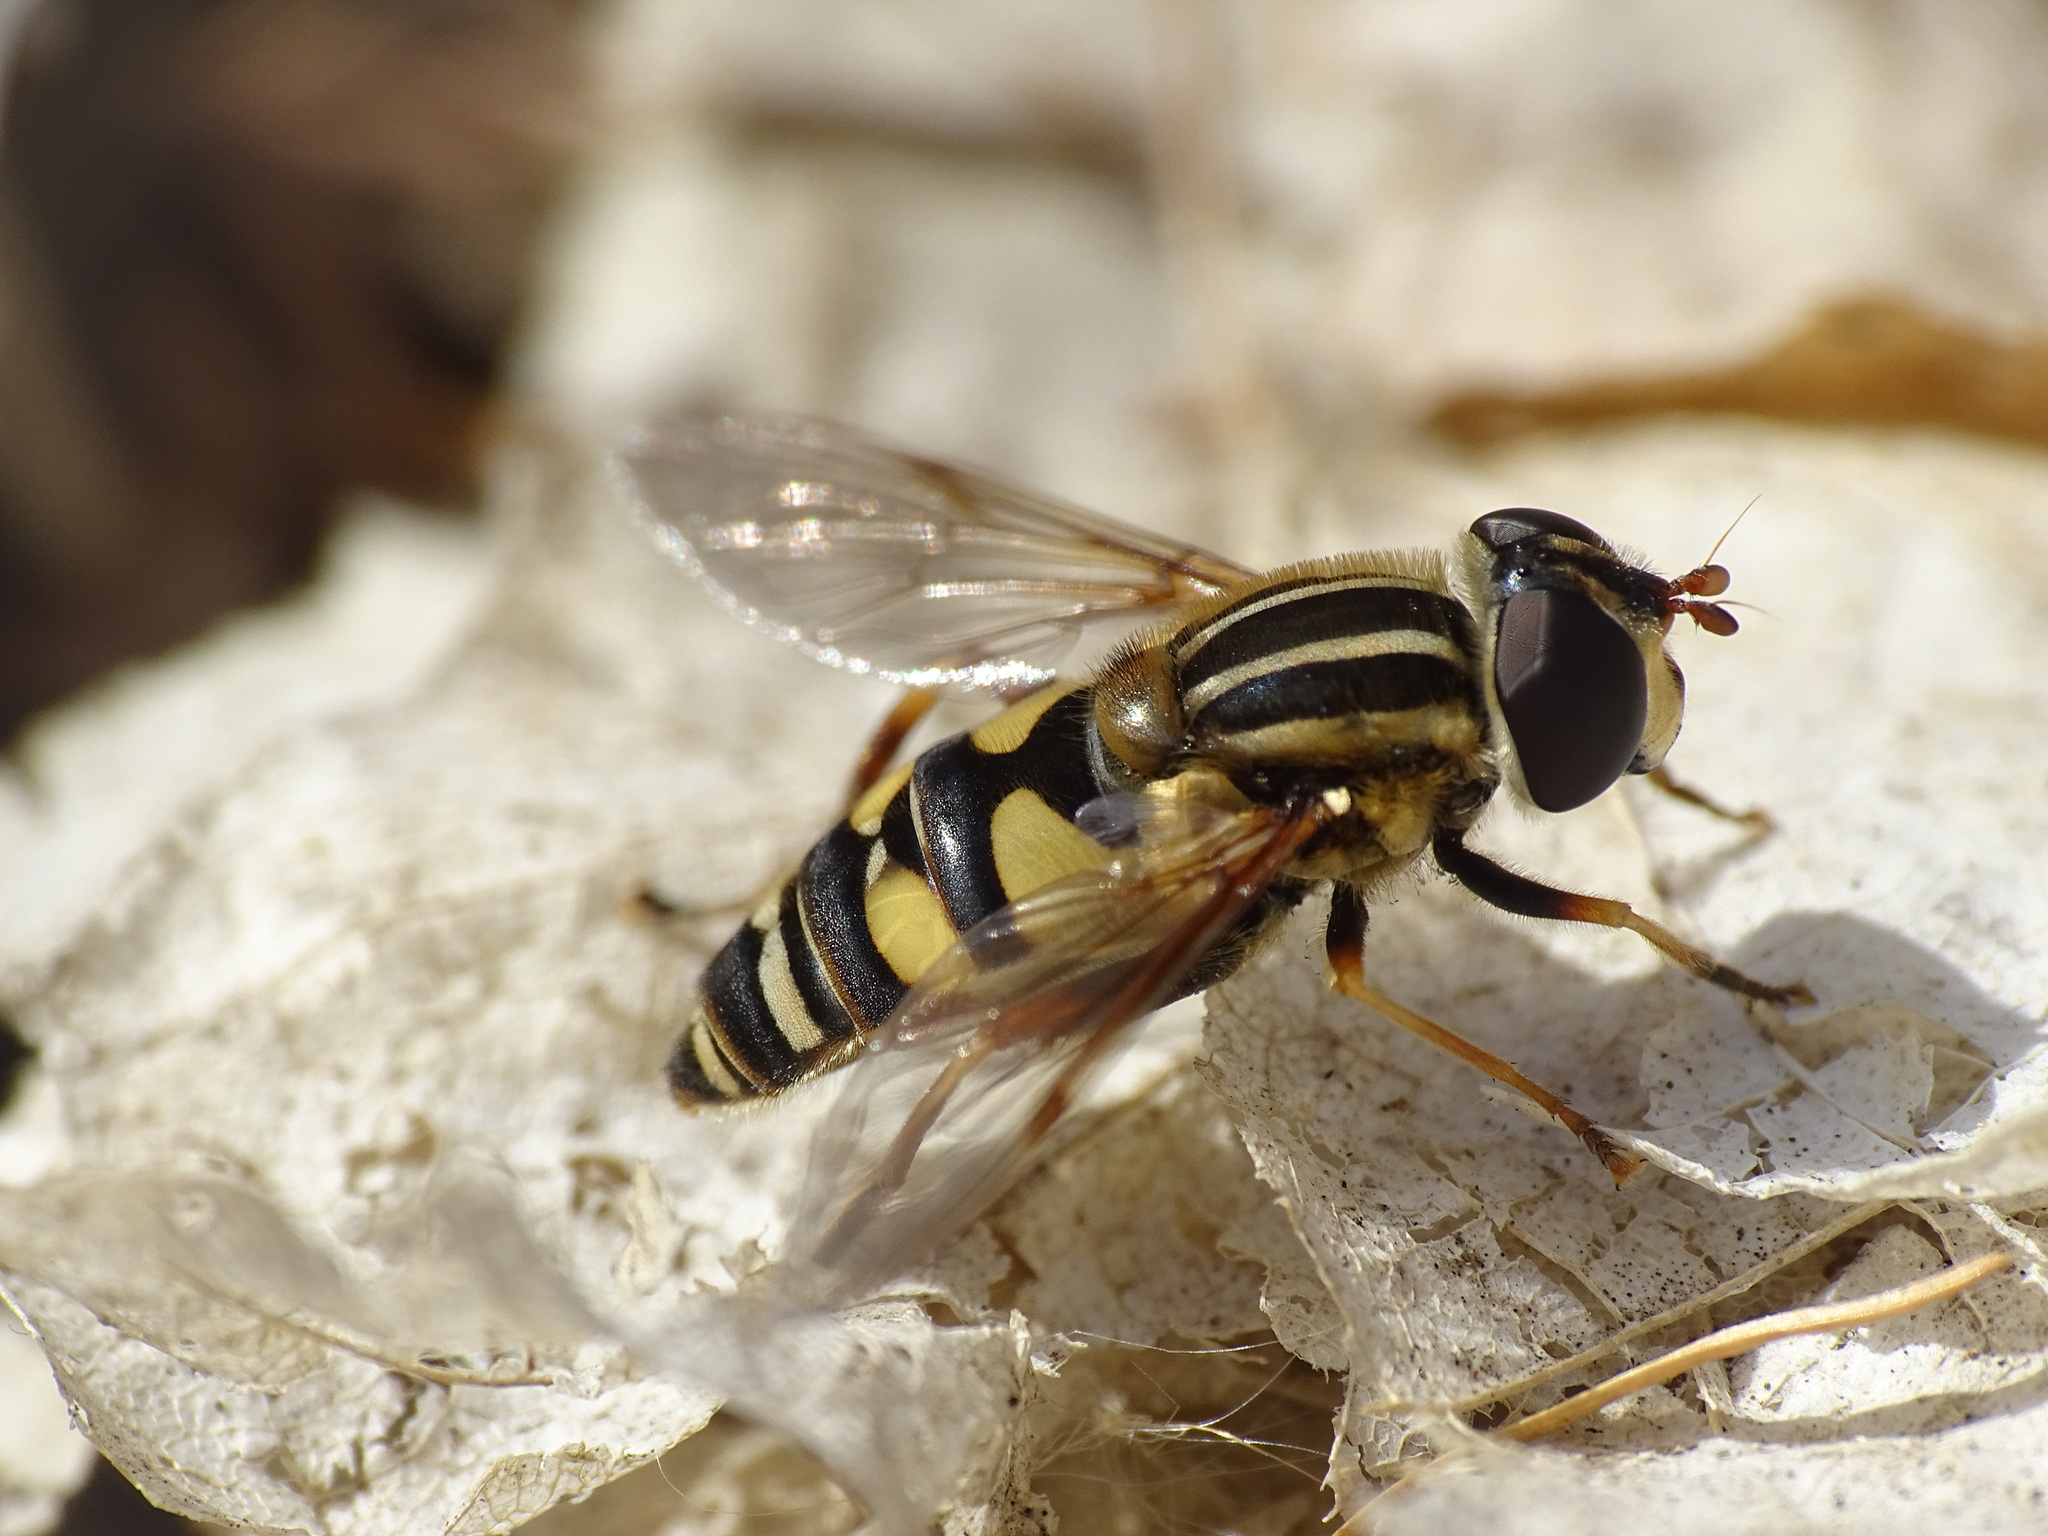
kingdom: Animalia
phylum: Arthropoda
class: Insecta
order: Diptera
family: Syrphidae
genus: Helophilus
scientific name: Helophilus fasciatus
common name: Narrow-headed marsh fly
